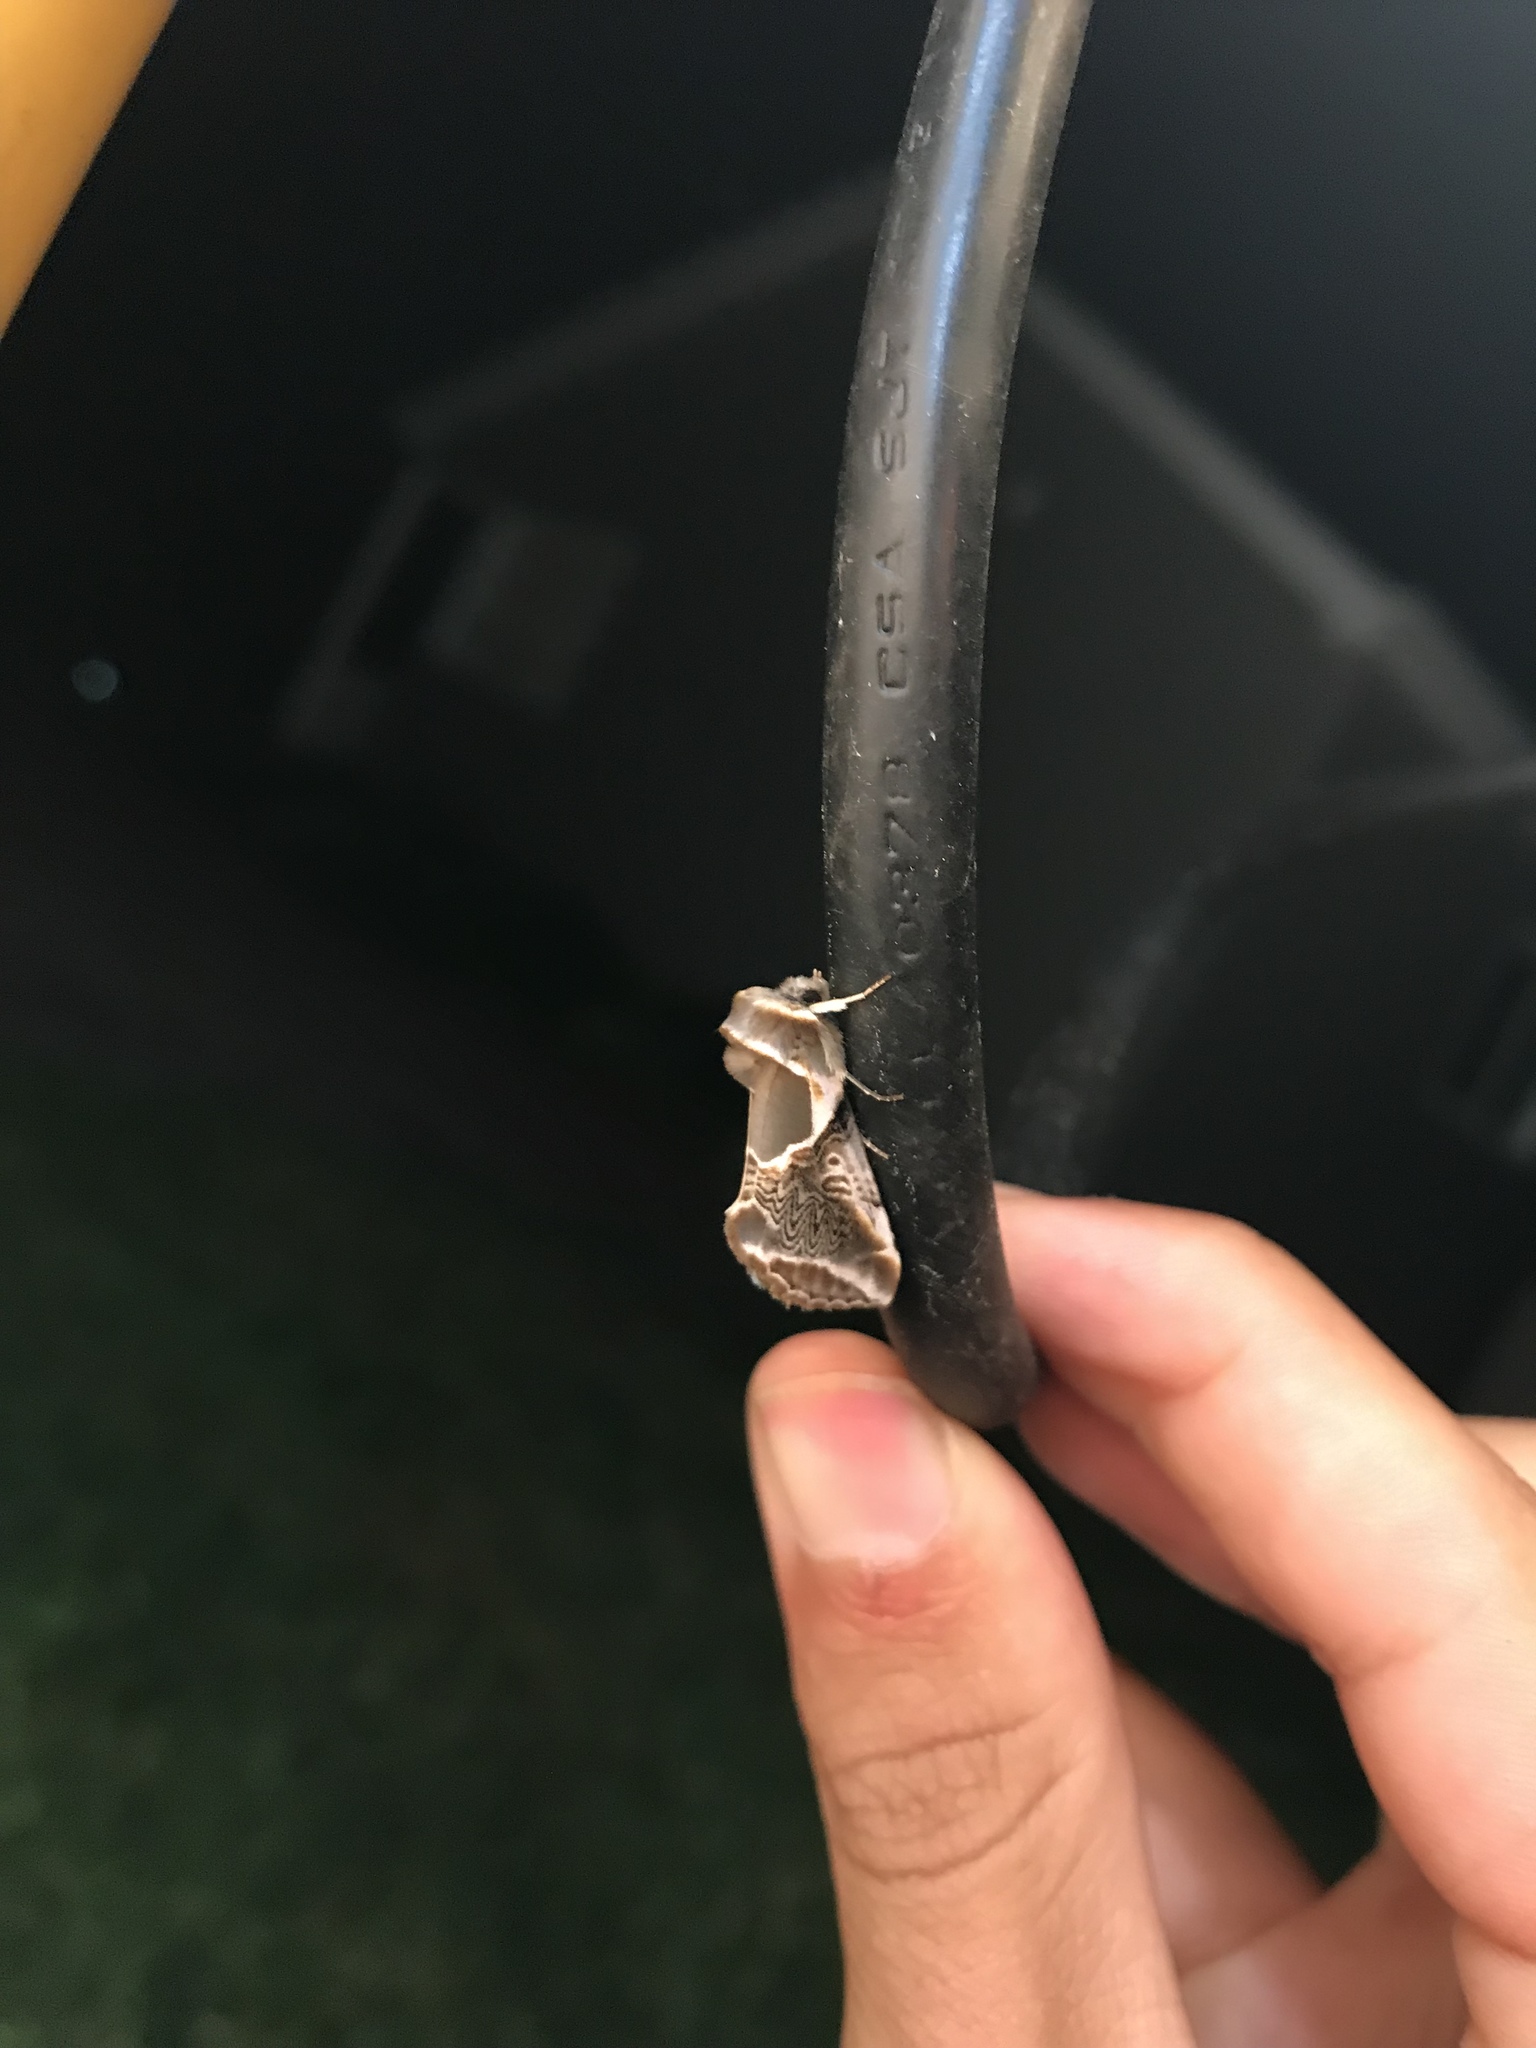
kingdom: Animalia
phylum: Arthropoda
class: Insecta
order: Lepidoptera
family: Drepanidae
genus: Habrosyne
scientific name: Habrosyne scripta
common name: Lettered habrosyne moth
